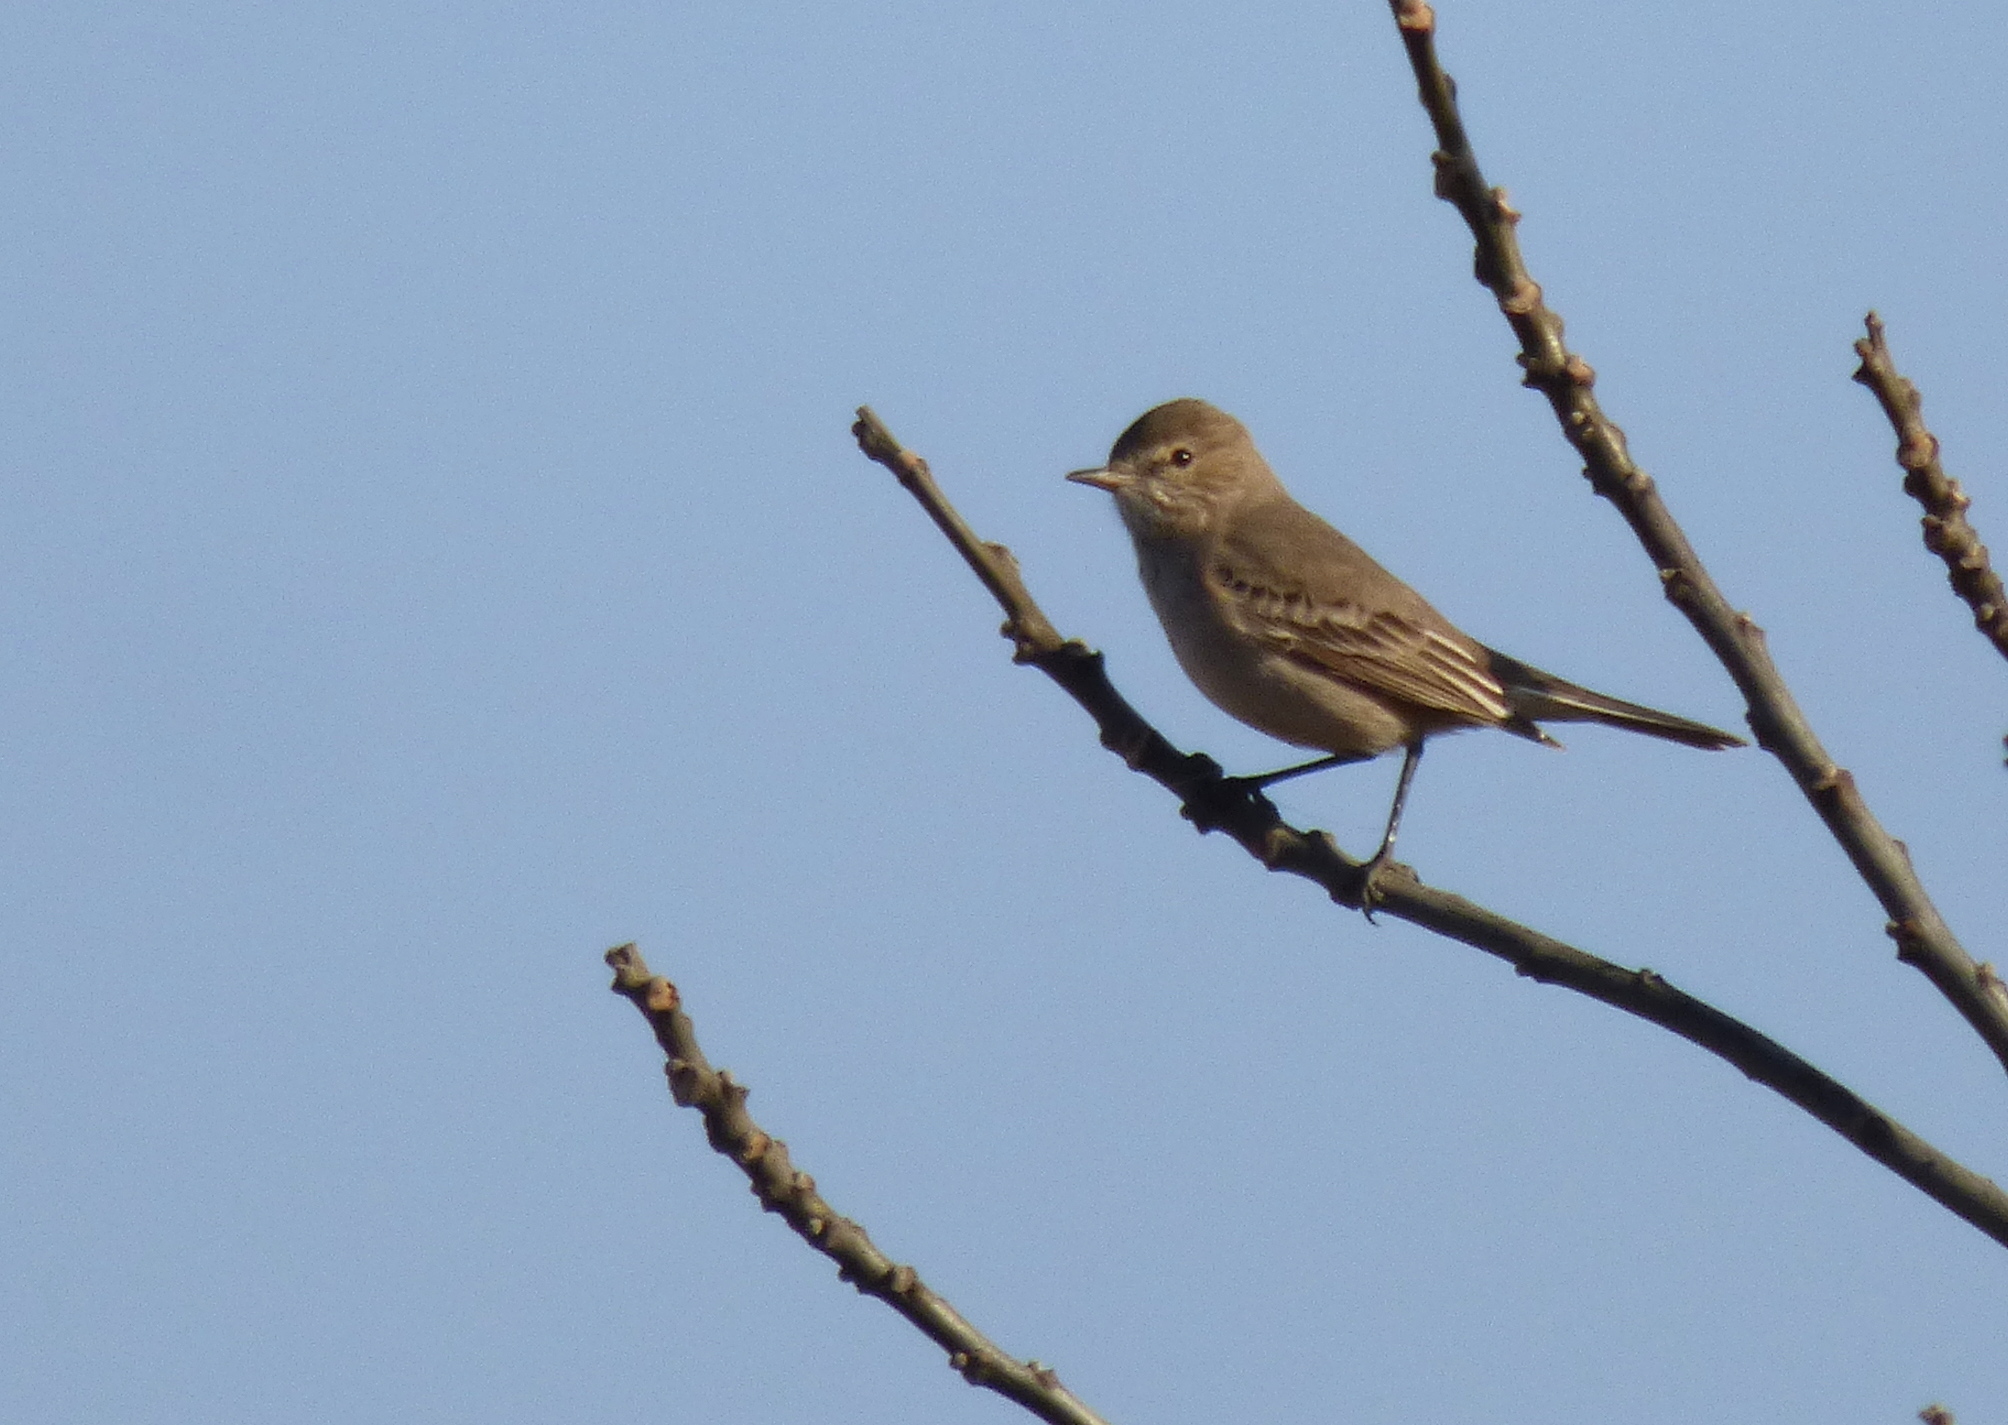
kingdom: Animalia
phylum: Chordata
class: Aves
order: Passeriformes
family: Tyrannidae
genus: Agriornis
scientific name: Agriornis murinus
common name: Lesser shrike-tyrant
